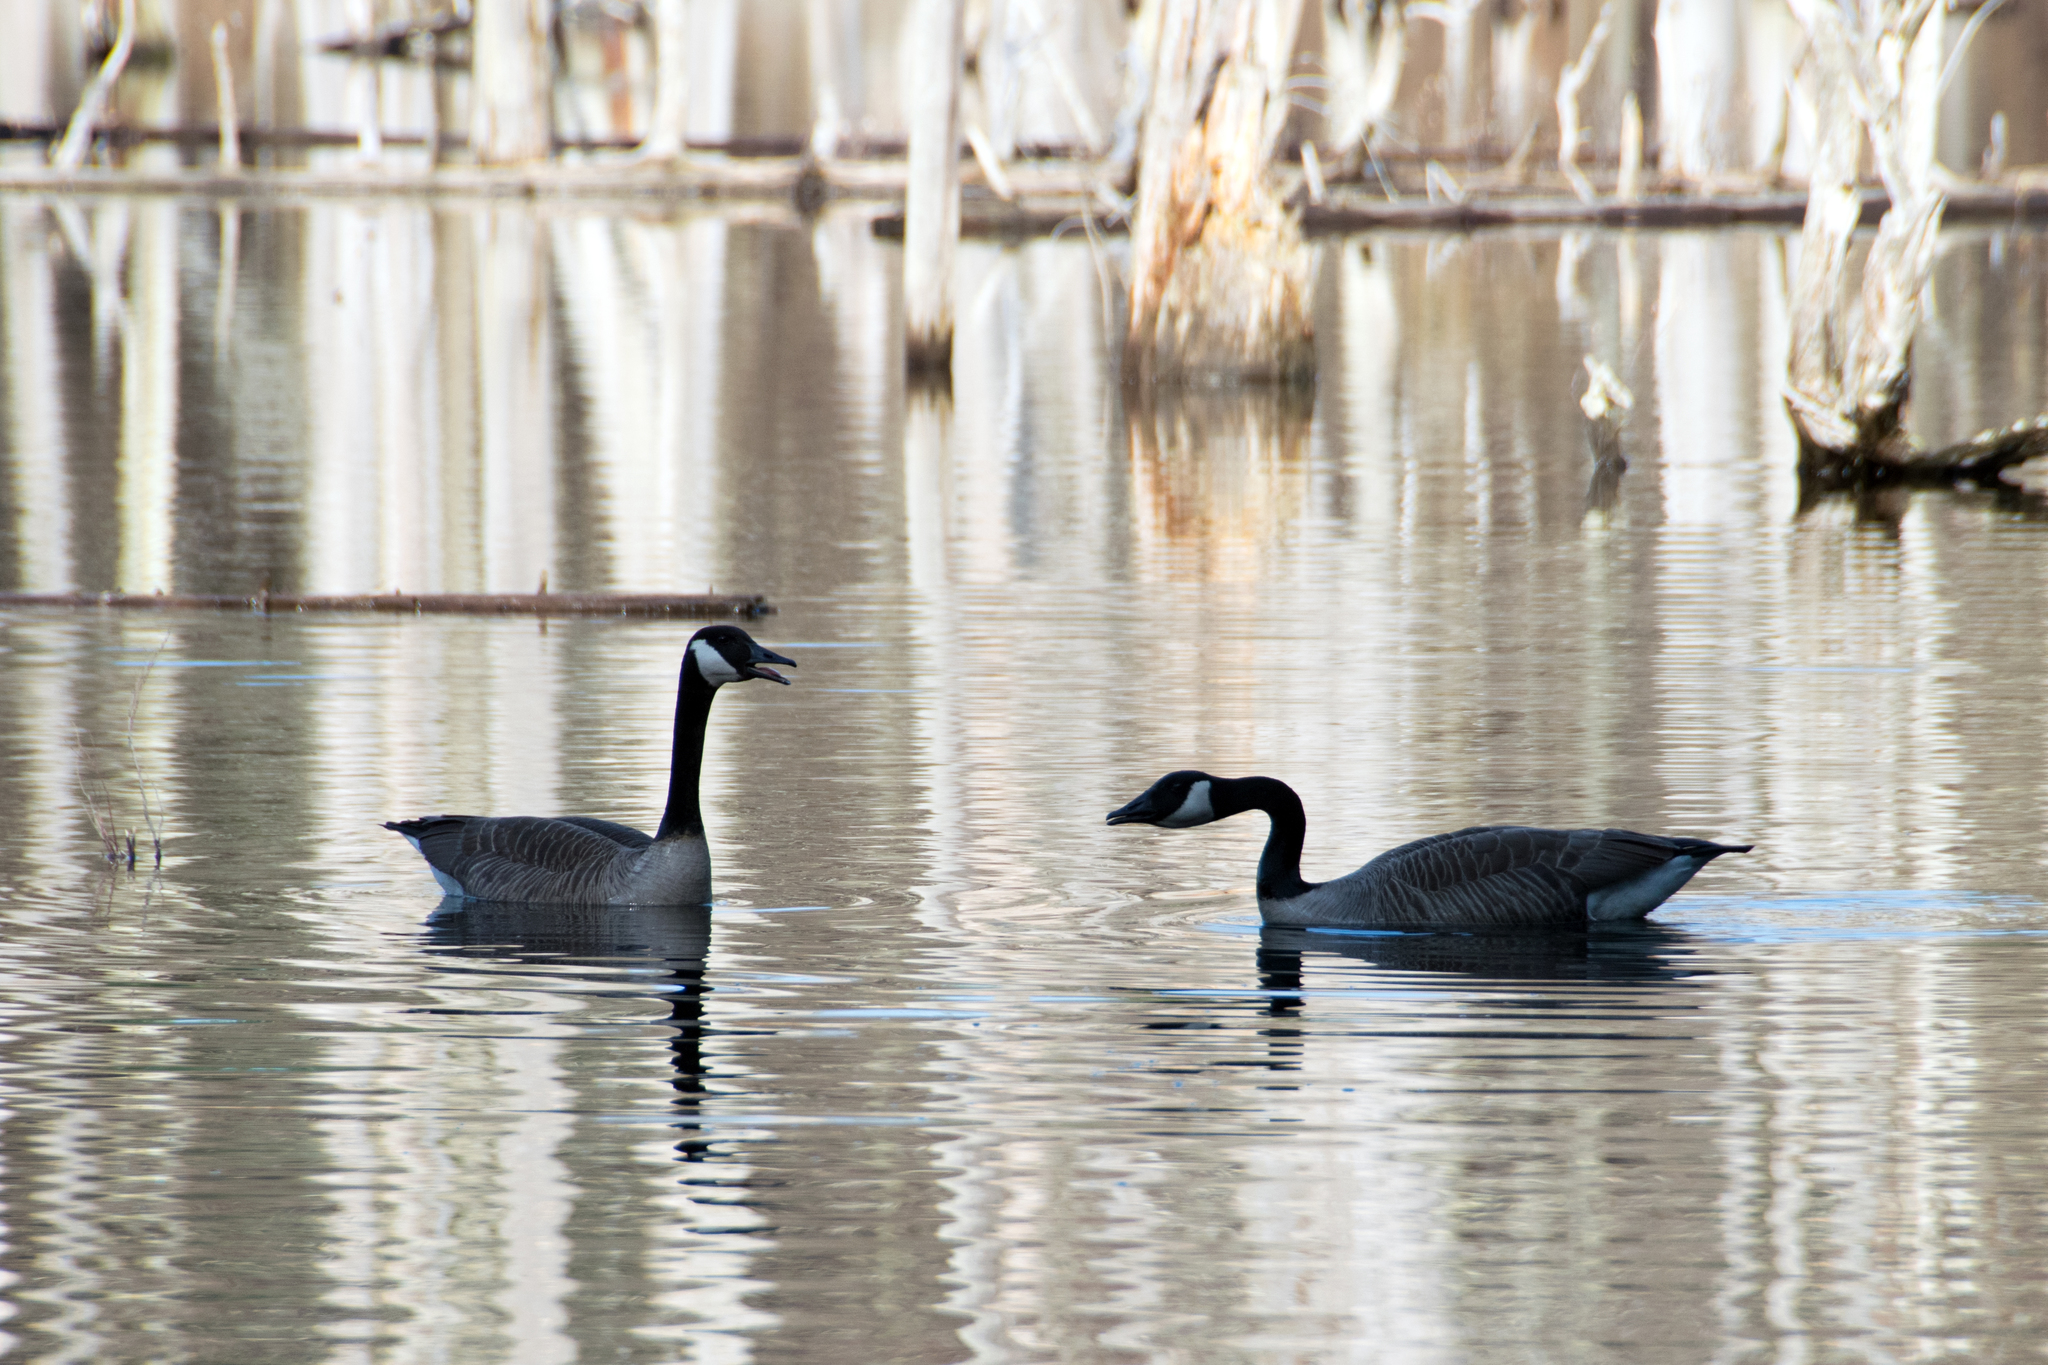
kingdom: Animalia
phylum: Chordata
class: Aves
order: Anseriformes
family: Anatidae
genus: Branta
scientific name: Branta canadensis
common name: Canada goose
